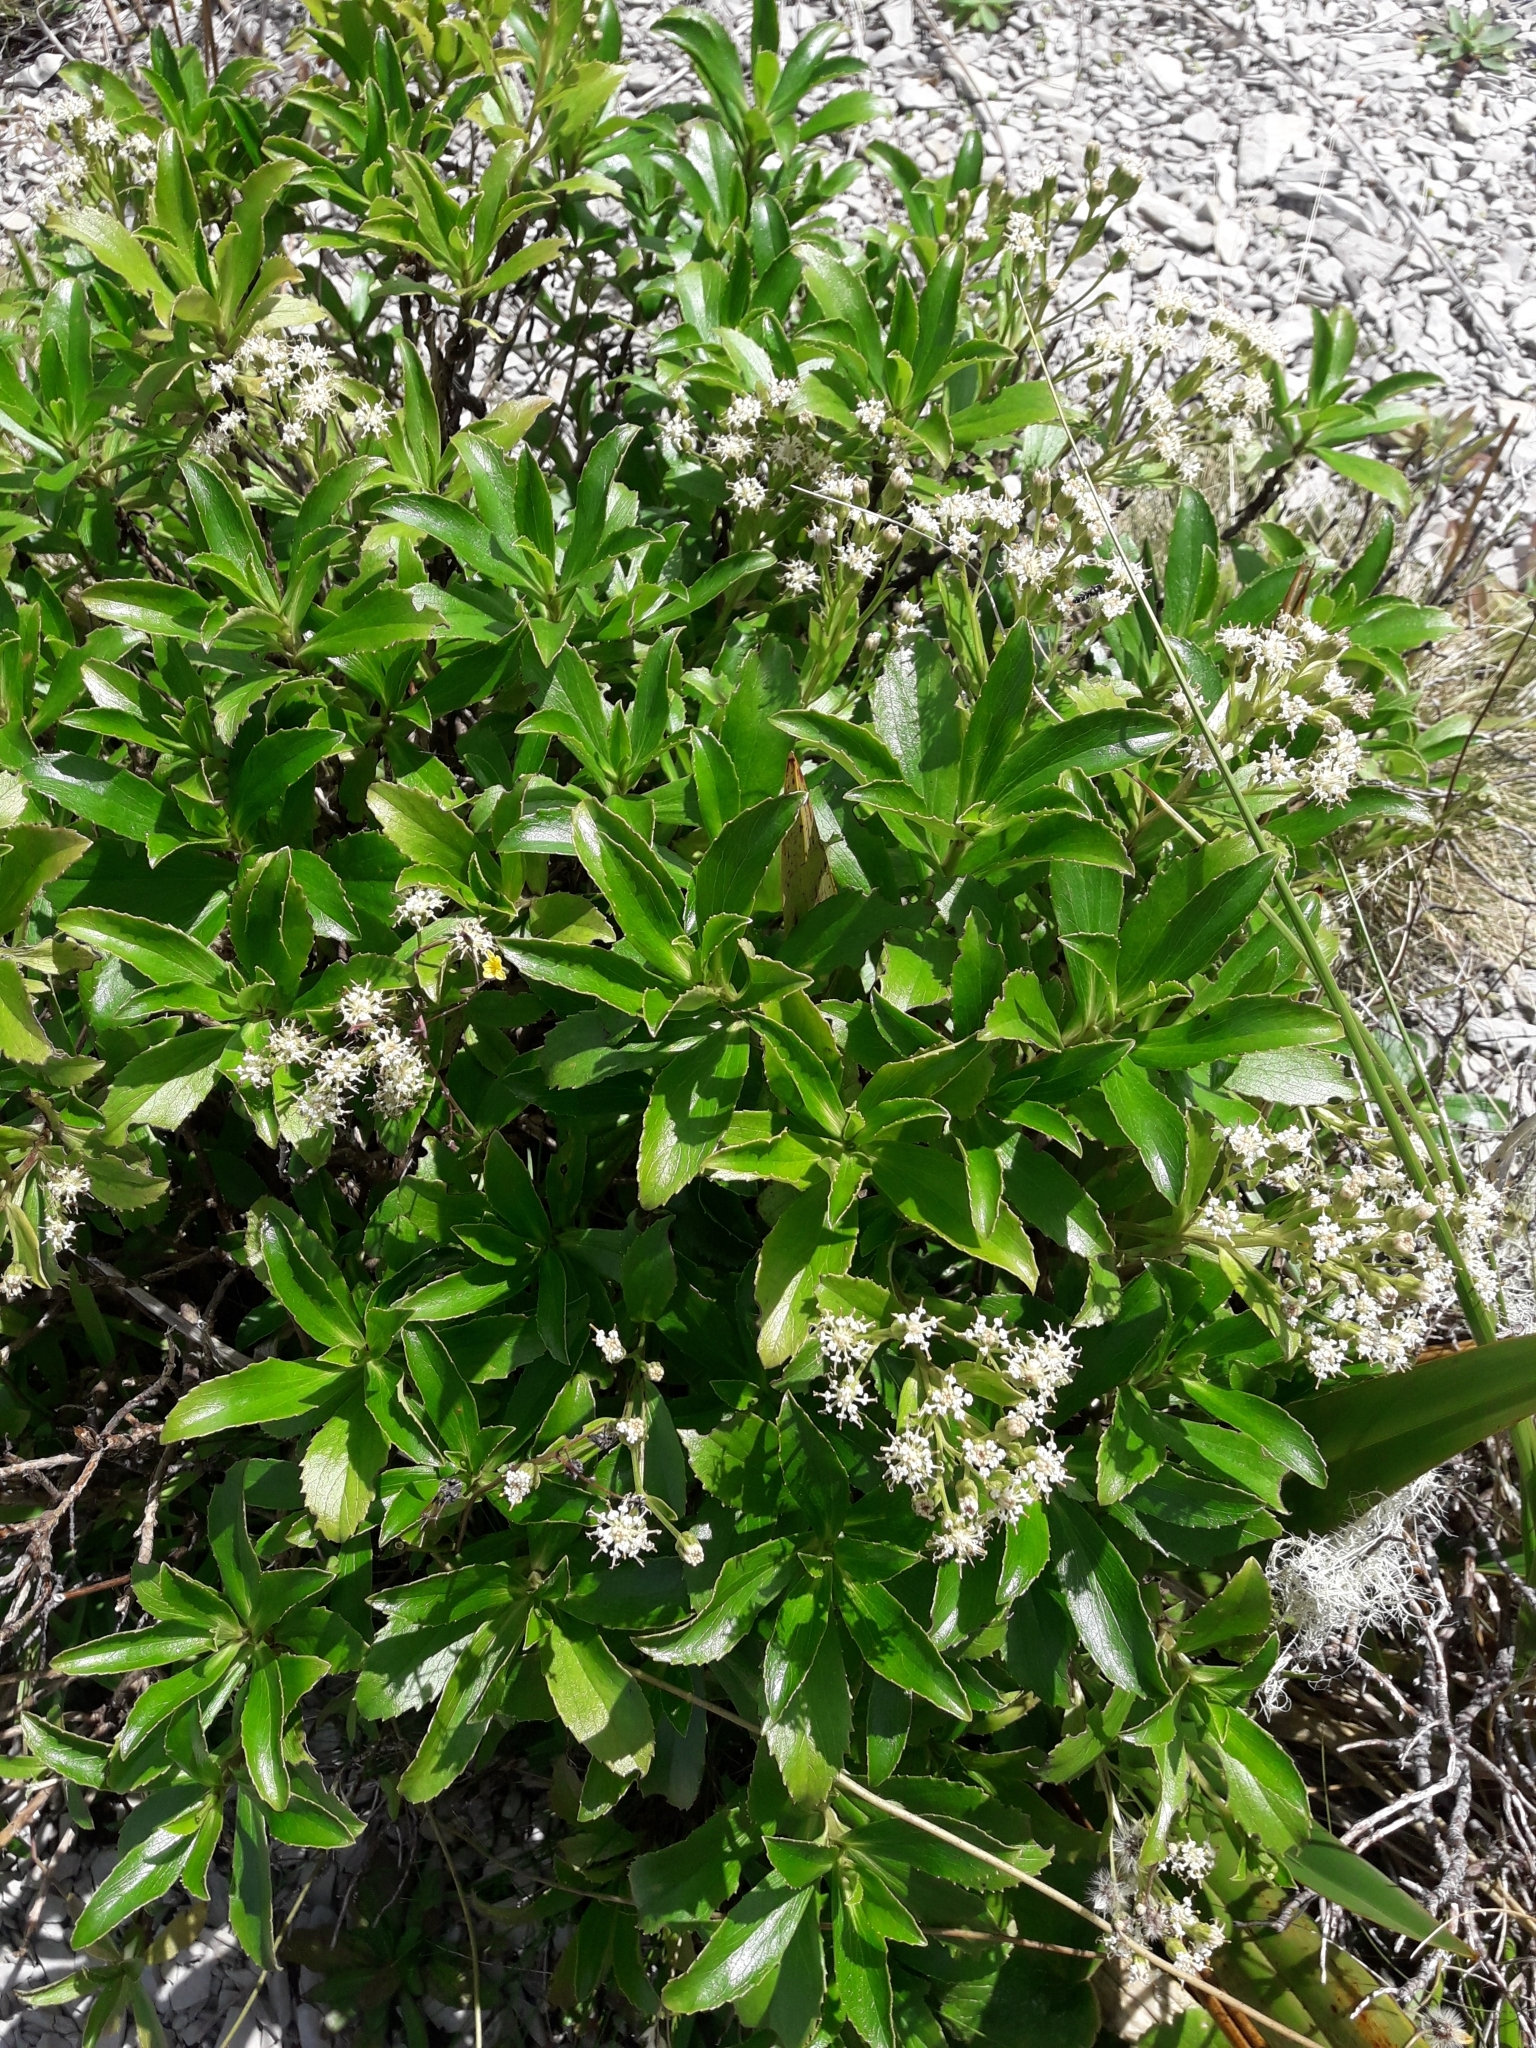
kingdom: Plantae
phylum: Tracheophyta
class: Magnoliopsida
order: Asterales
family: Asteraceae
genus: Traversia
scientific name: Traversia baccharoides
